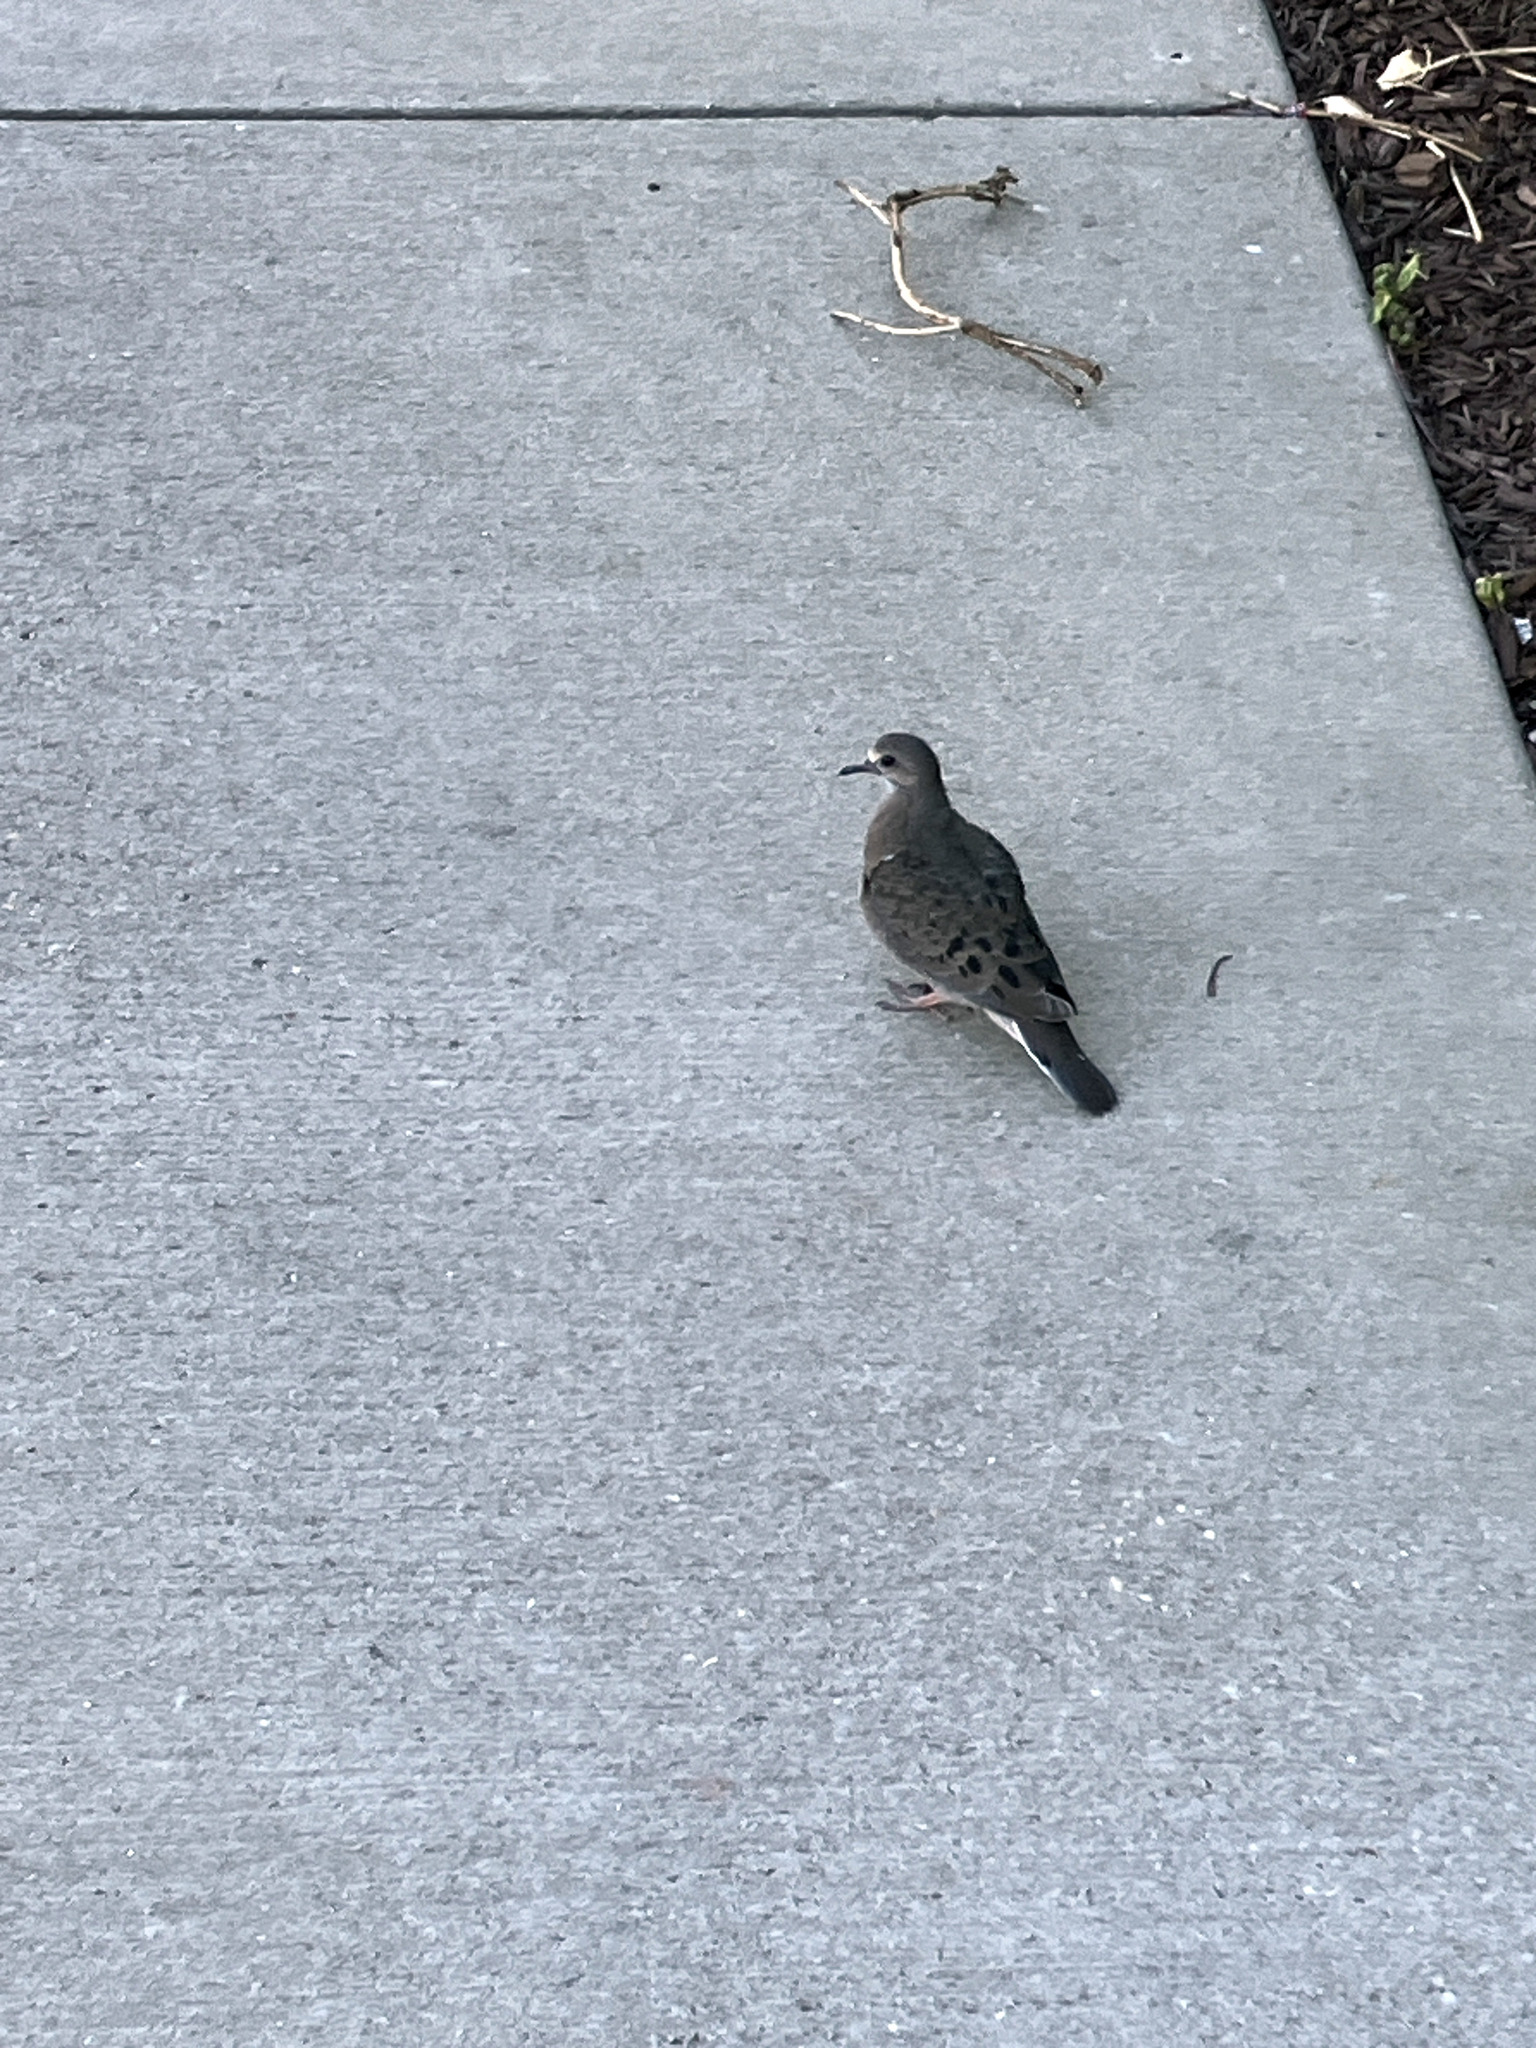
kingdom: Animalia
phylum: Chordata
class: Aves
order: Columbiformes
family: Columbidae
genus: Zenaida
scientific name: Zenaida macroura
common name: Mourning dove
